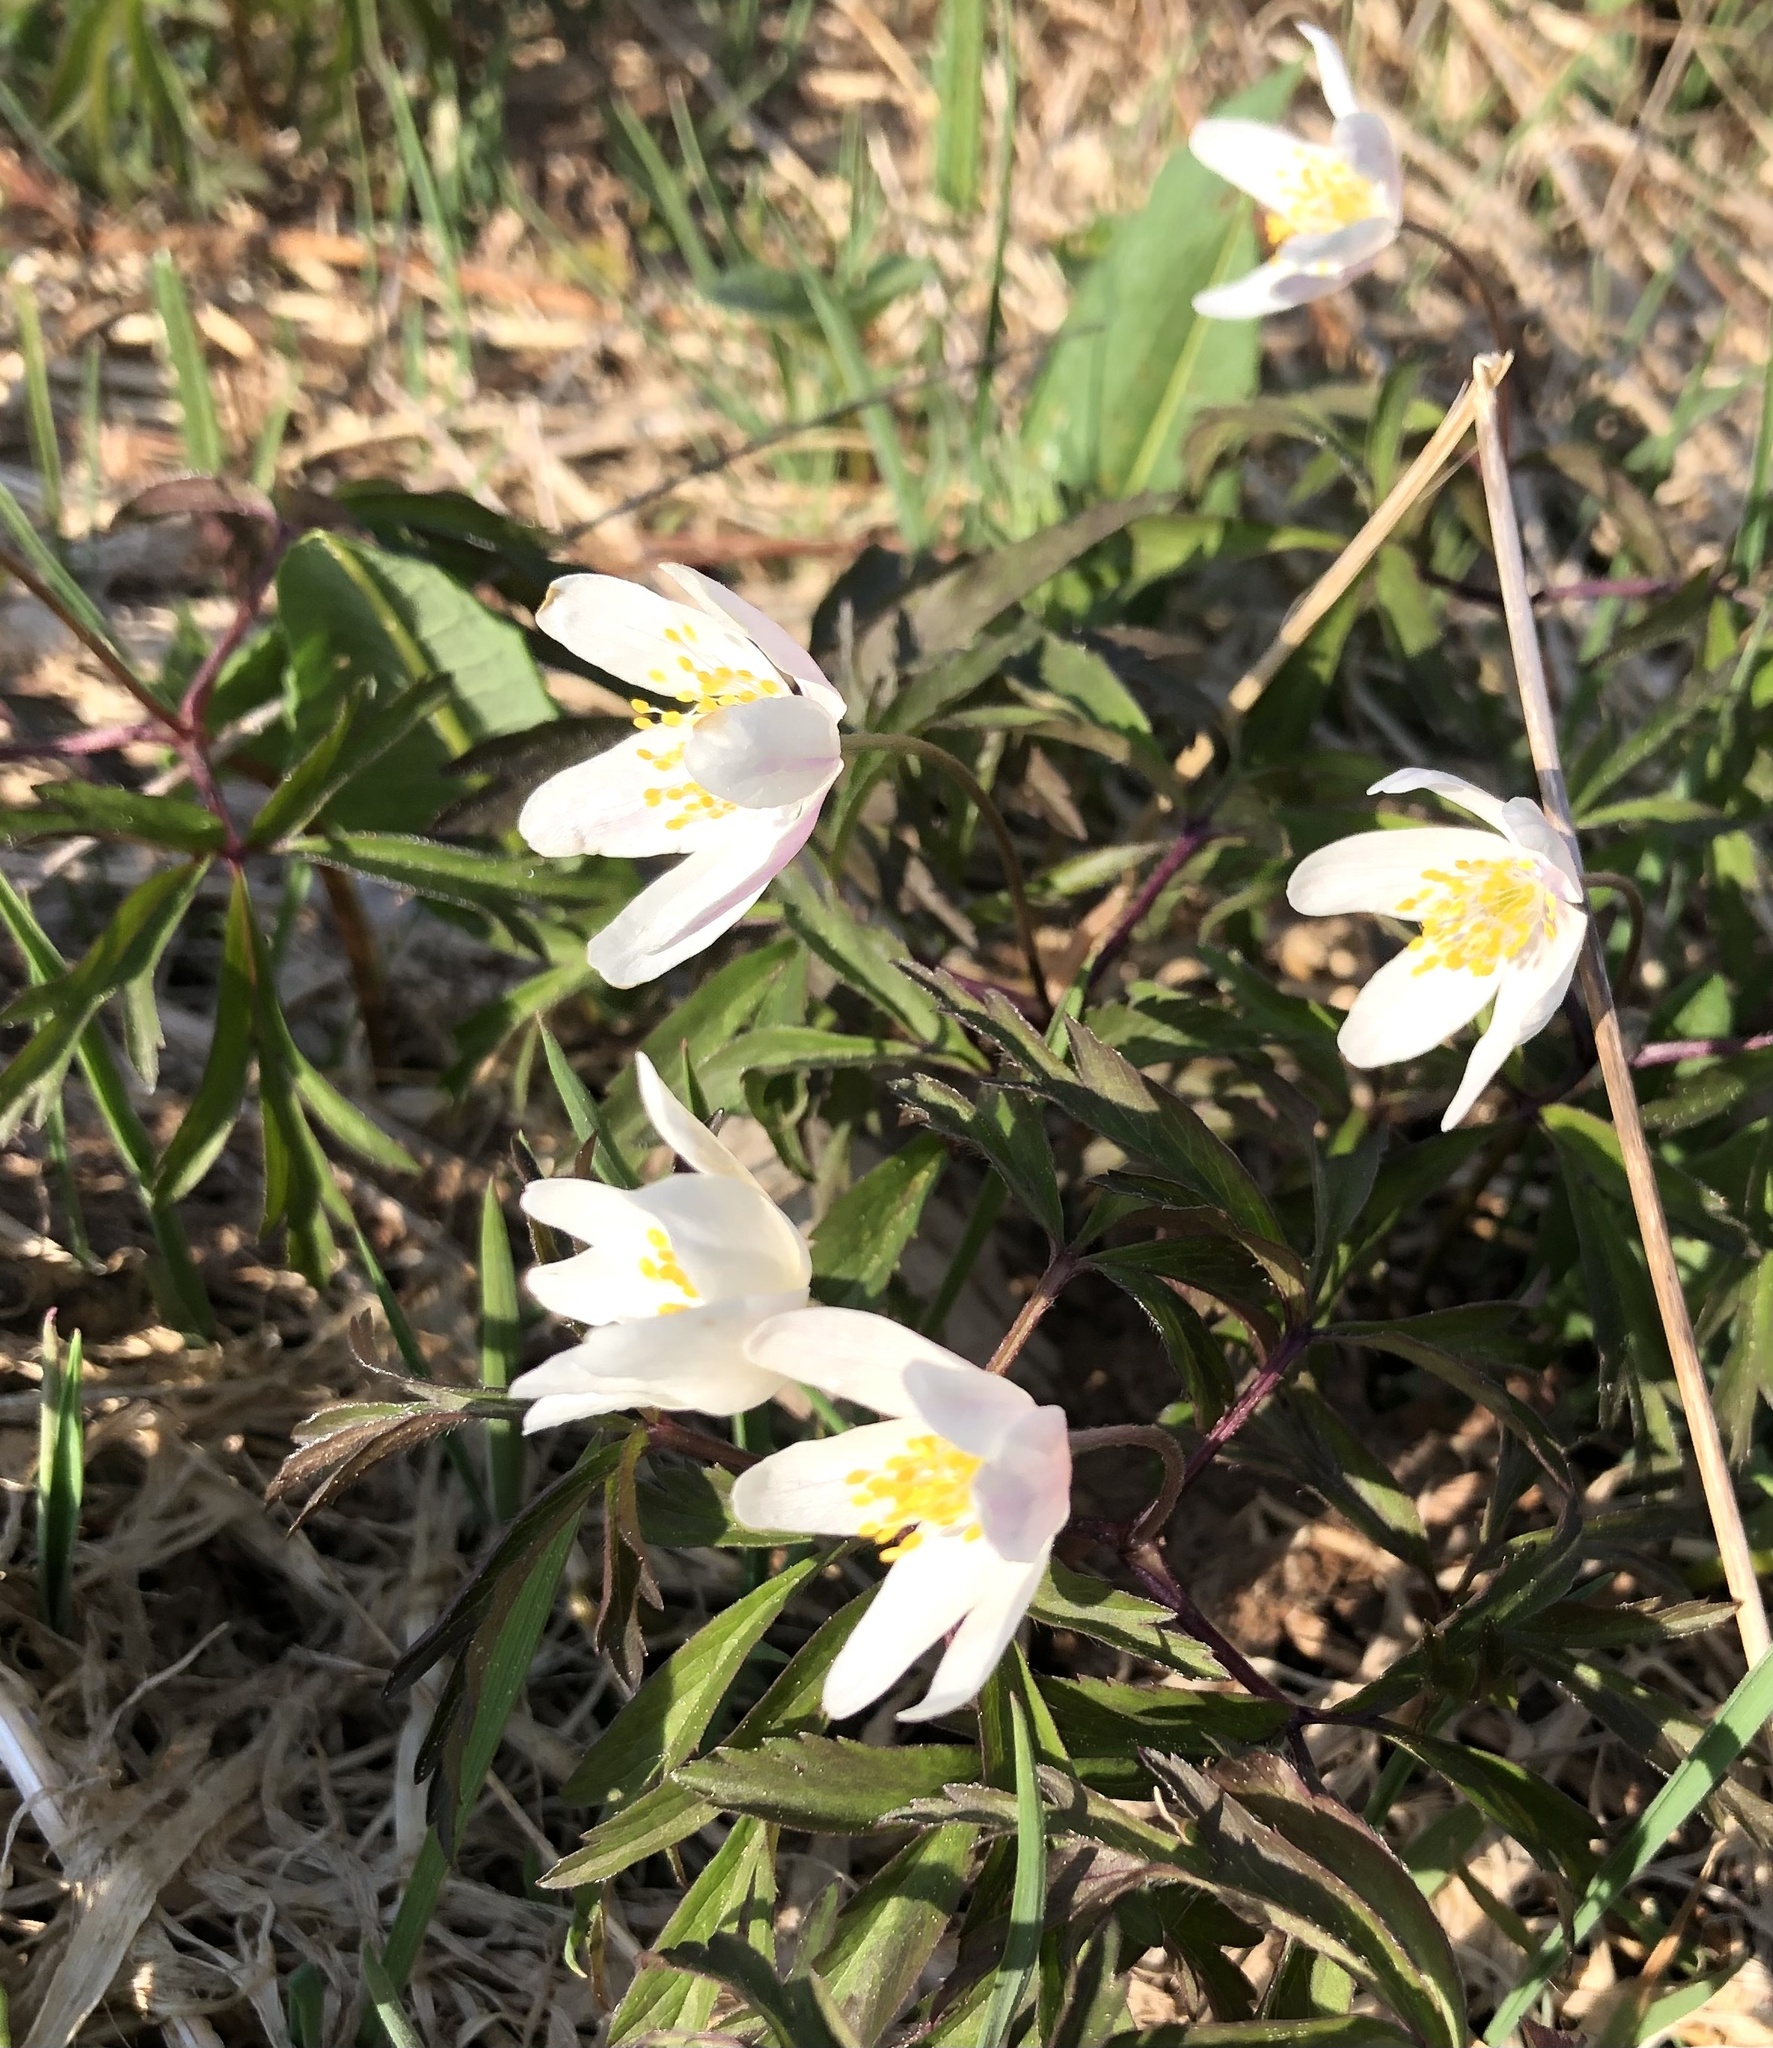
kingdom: Plantae
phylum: Tracheophyta
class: Magnoliopsida
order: Ranunculales
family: Ranunculaceae
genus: Anemone
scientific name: Anemone nemorosa
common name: Wood anemone
